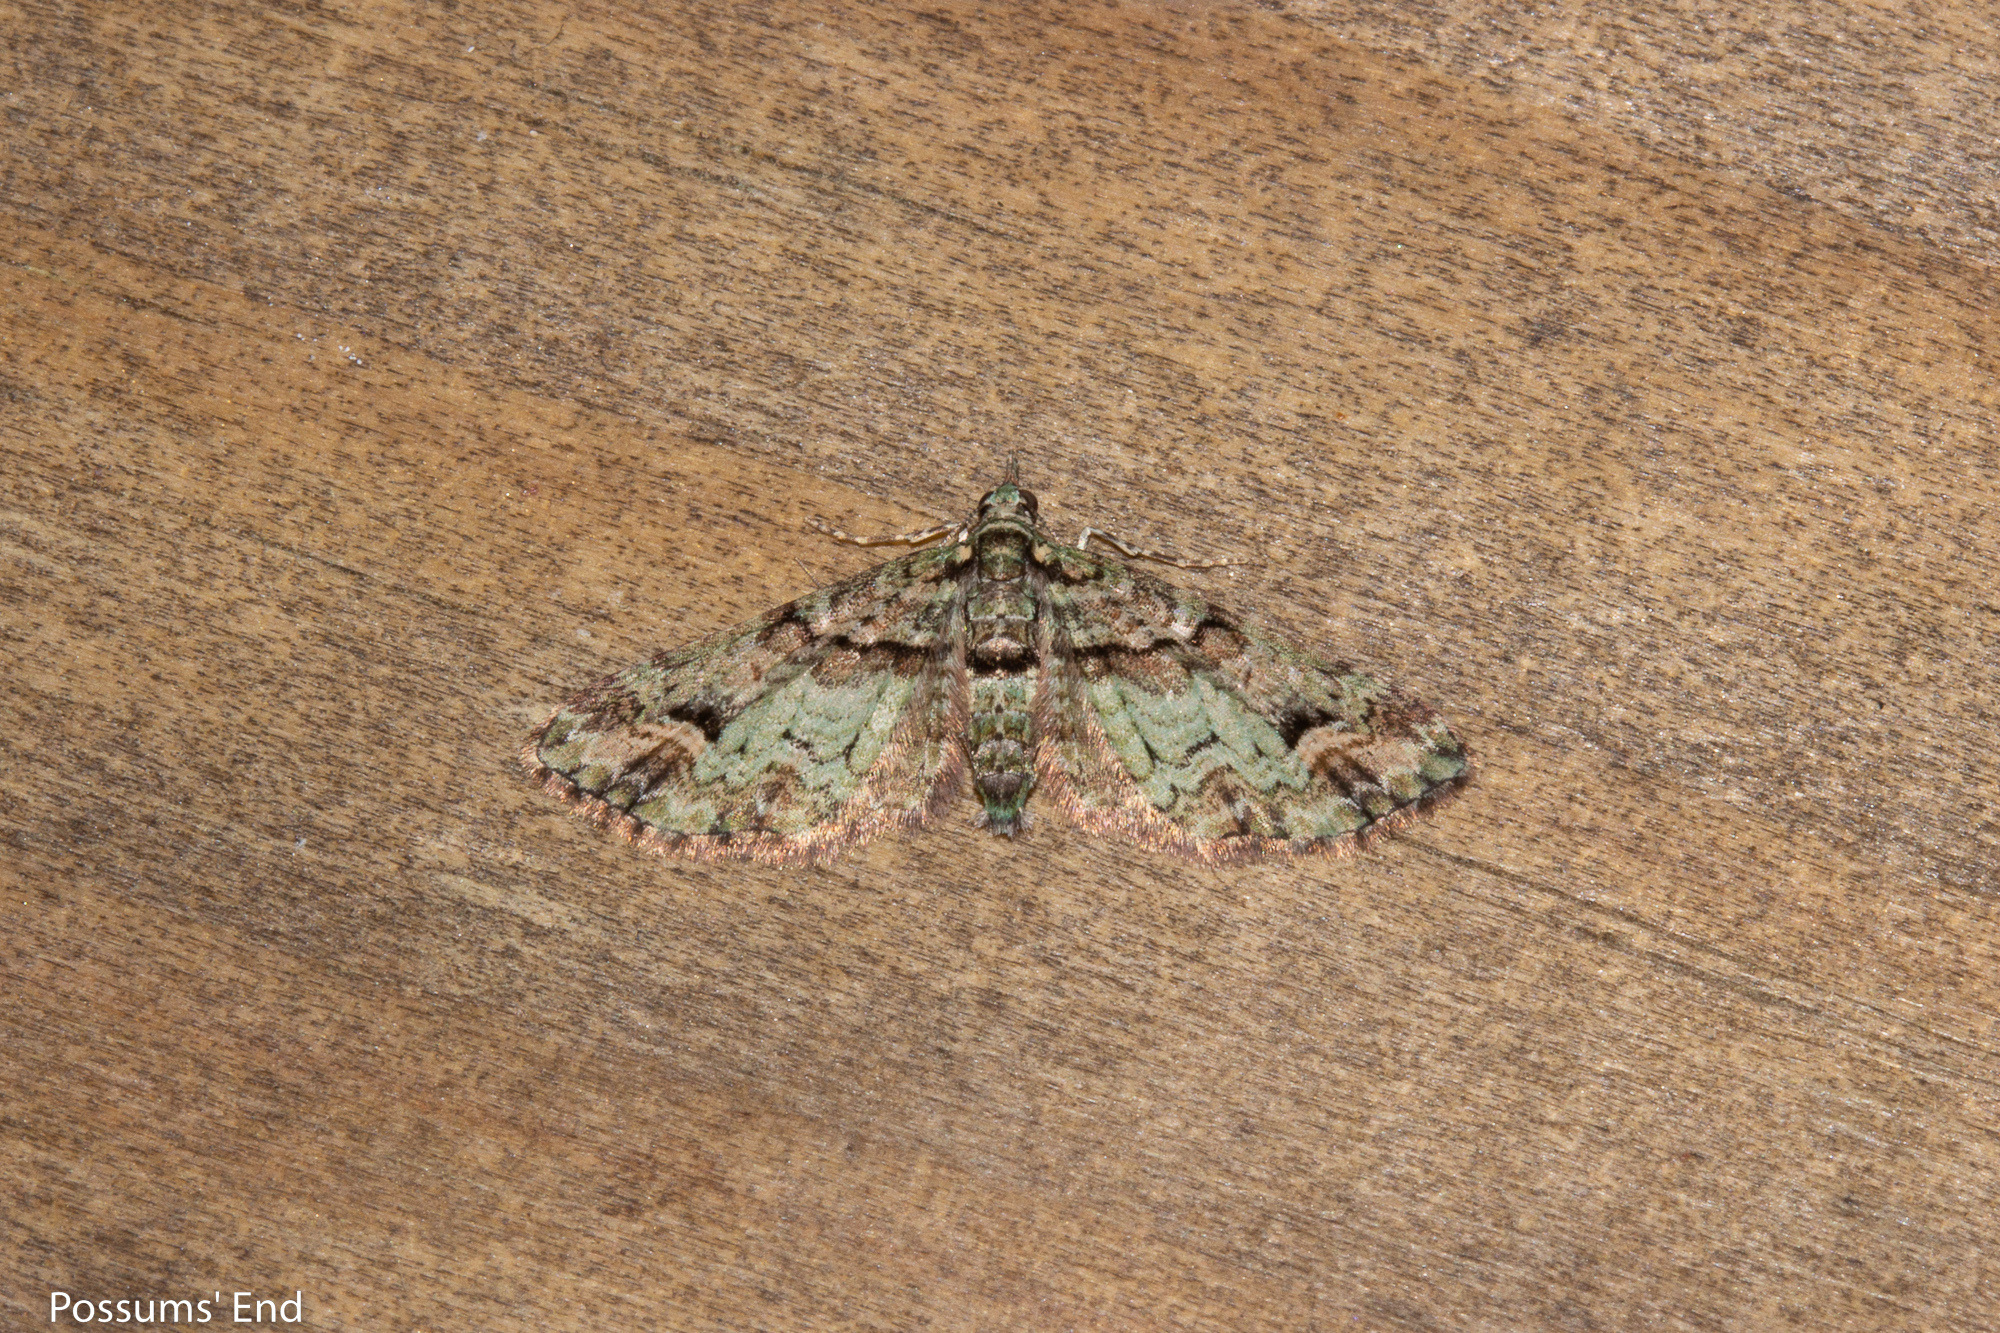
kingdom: Animalia
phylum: Arthropoda
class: Insecta
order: Lepidoptera
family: Geometridae
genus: Idaea
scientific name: Idaea mutanda
